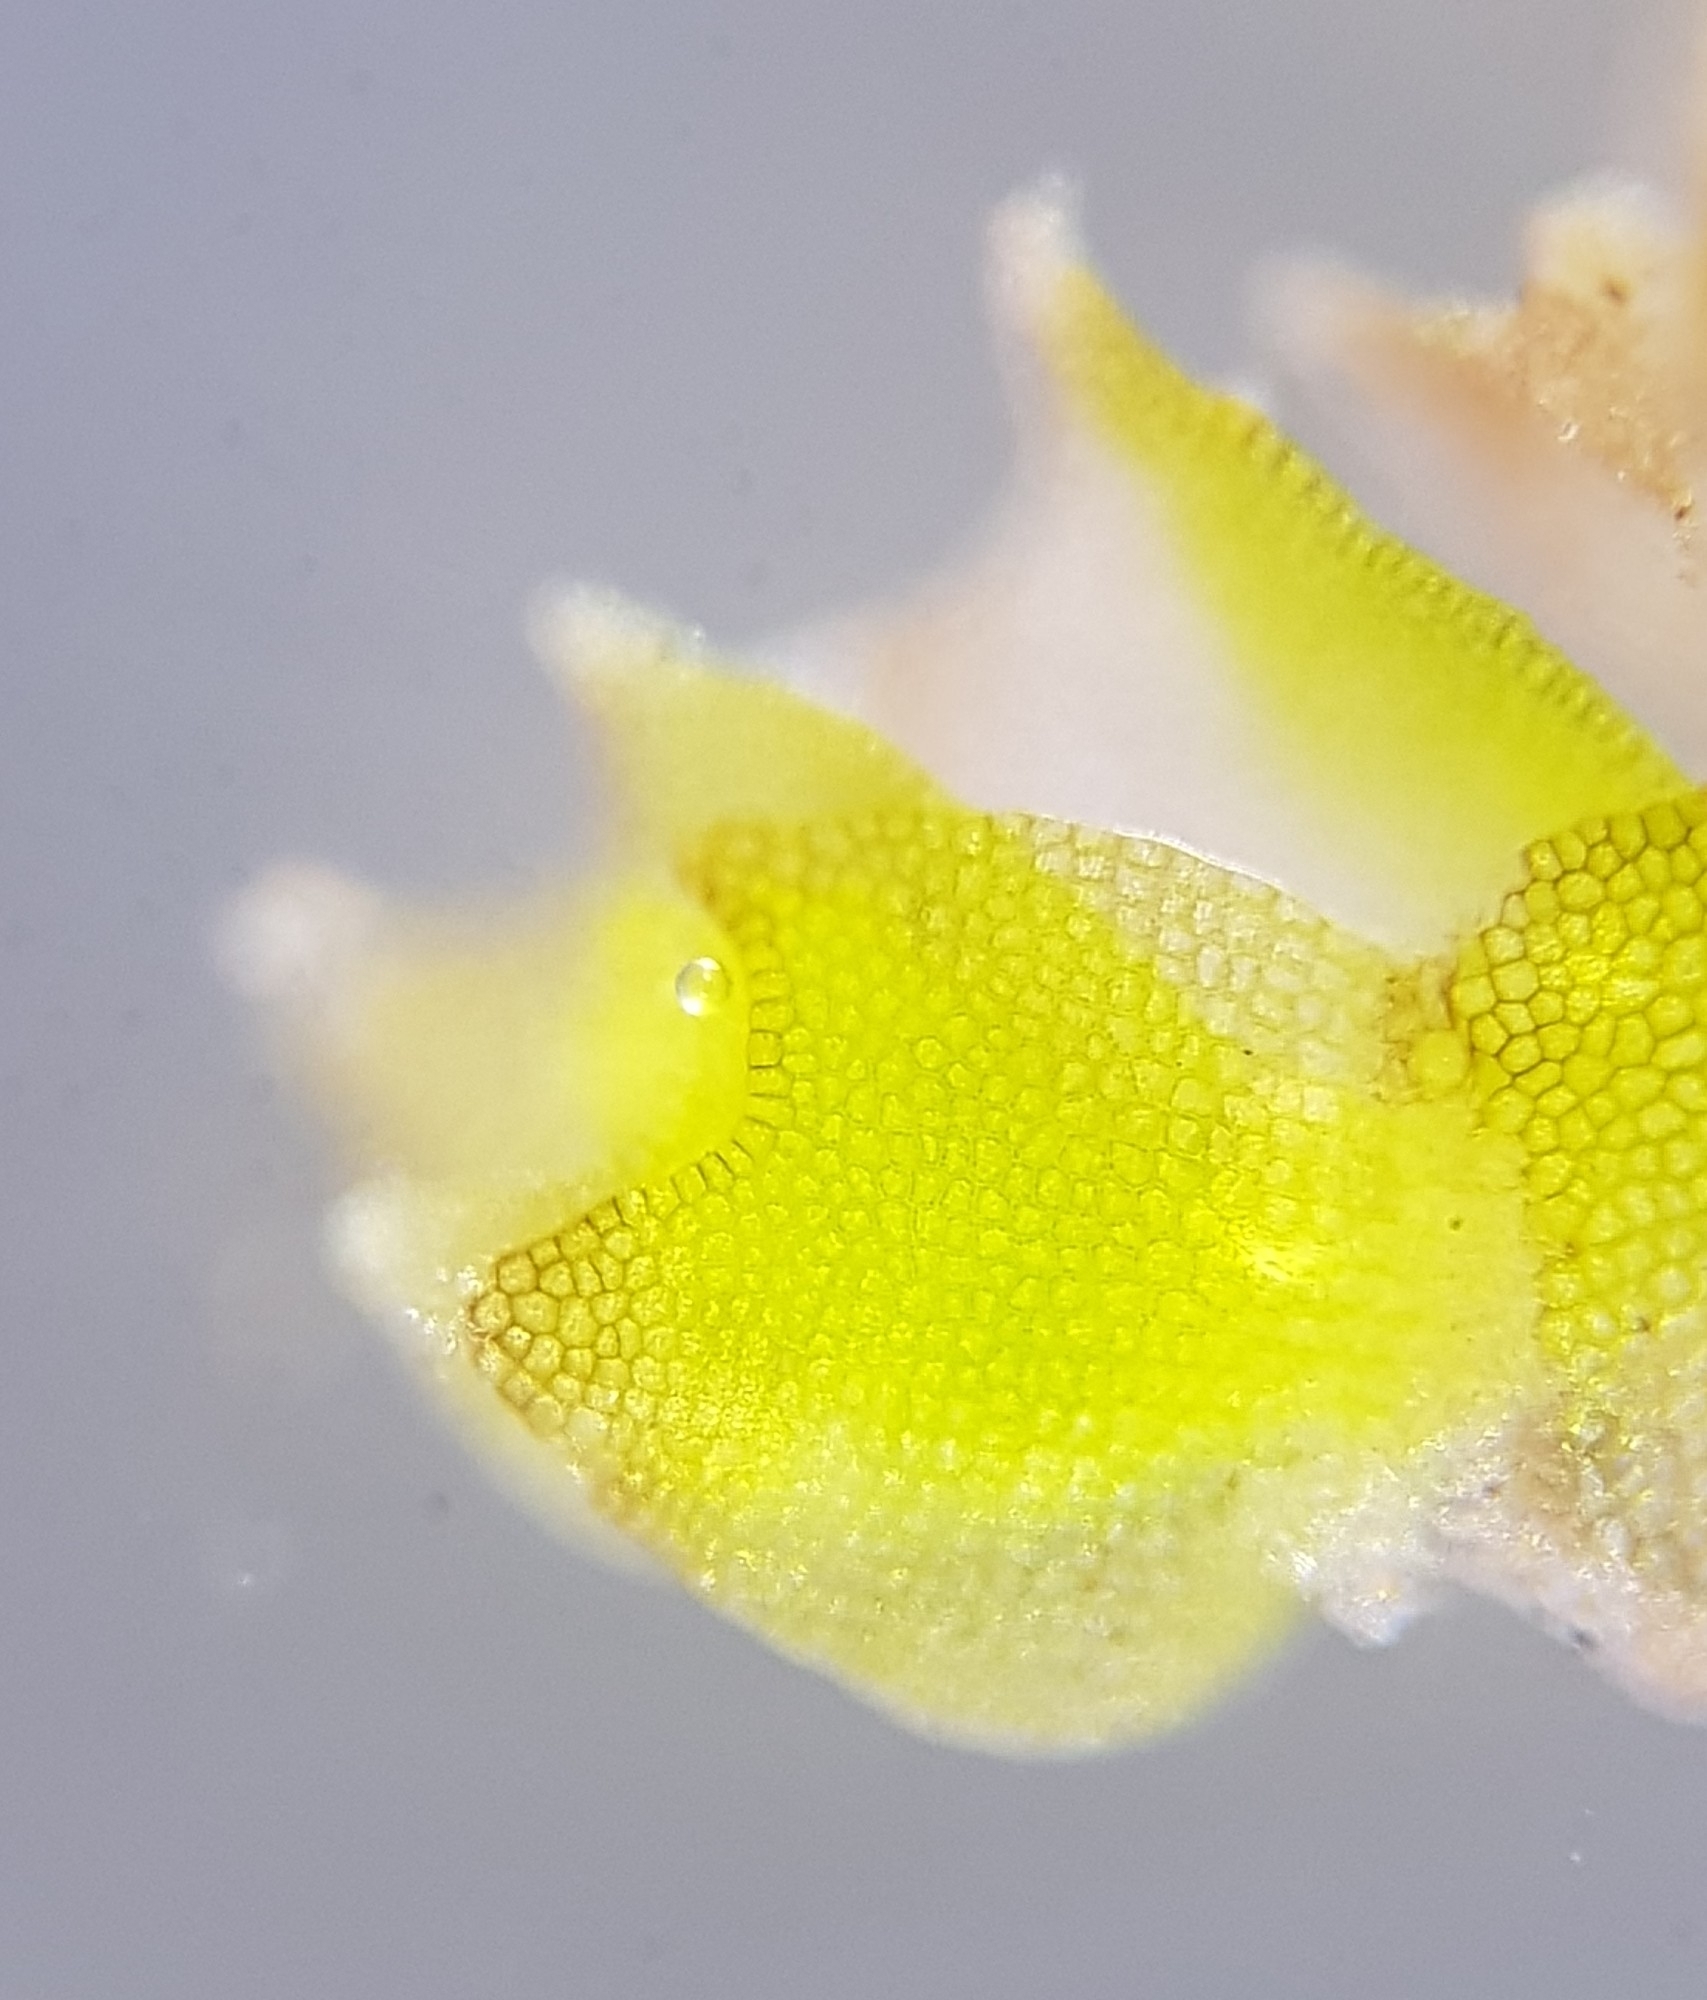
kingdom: Plantae
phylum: Marchantiophyta
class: Jungermanniopsida
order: Jungermanniales
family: Lophoziaceae
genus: Lophozia
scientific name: Lophozia ventricosa
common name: Tumid notchwort
